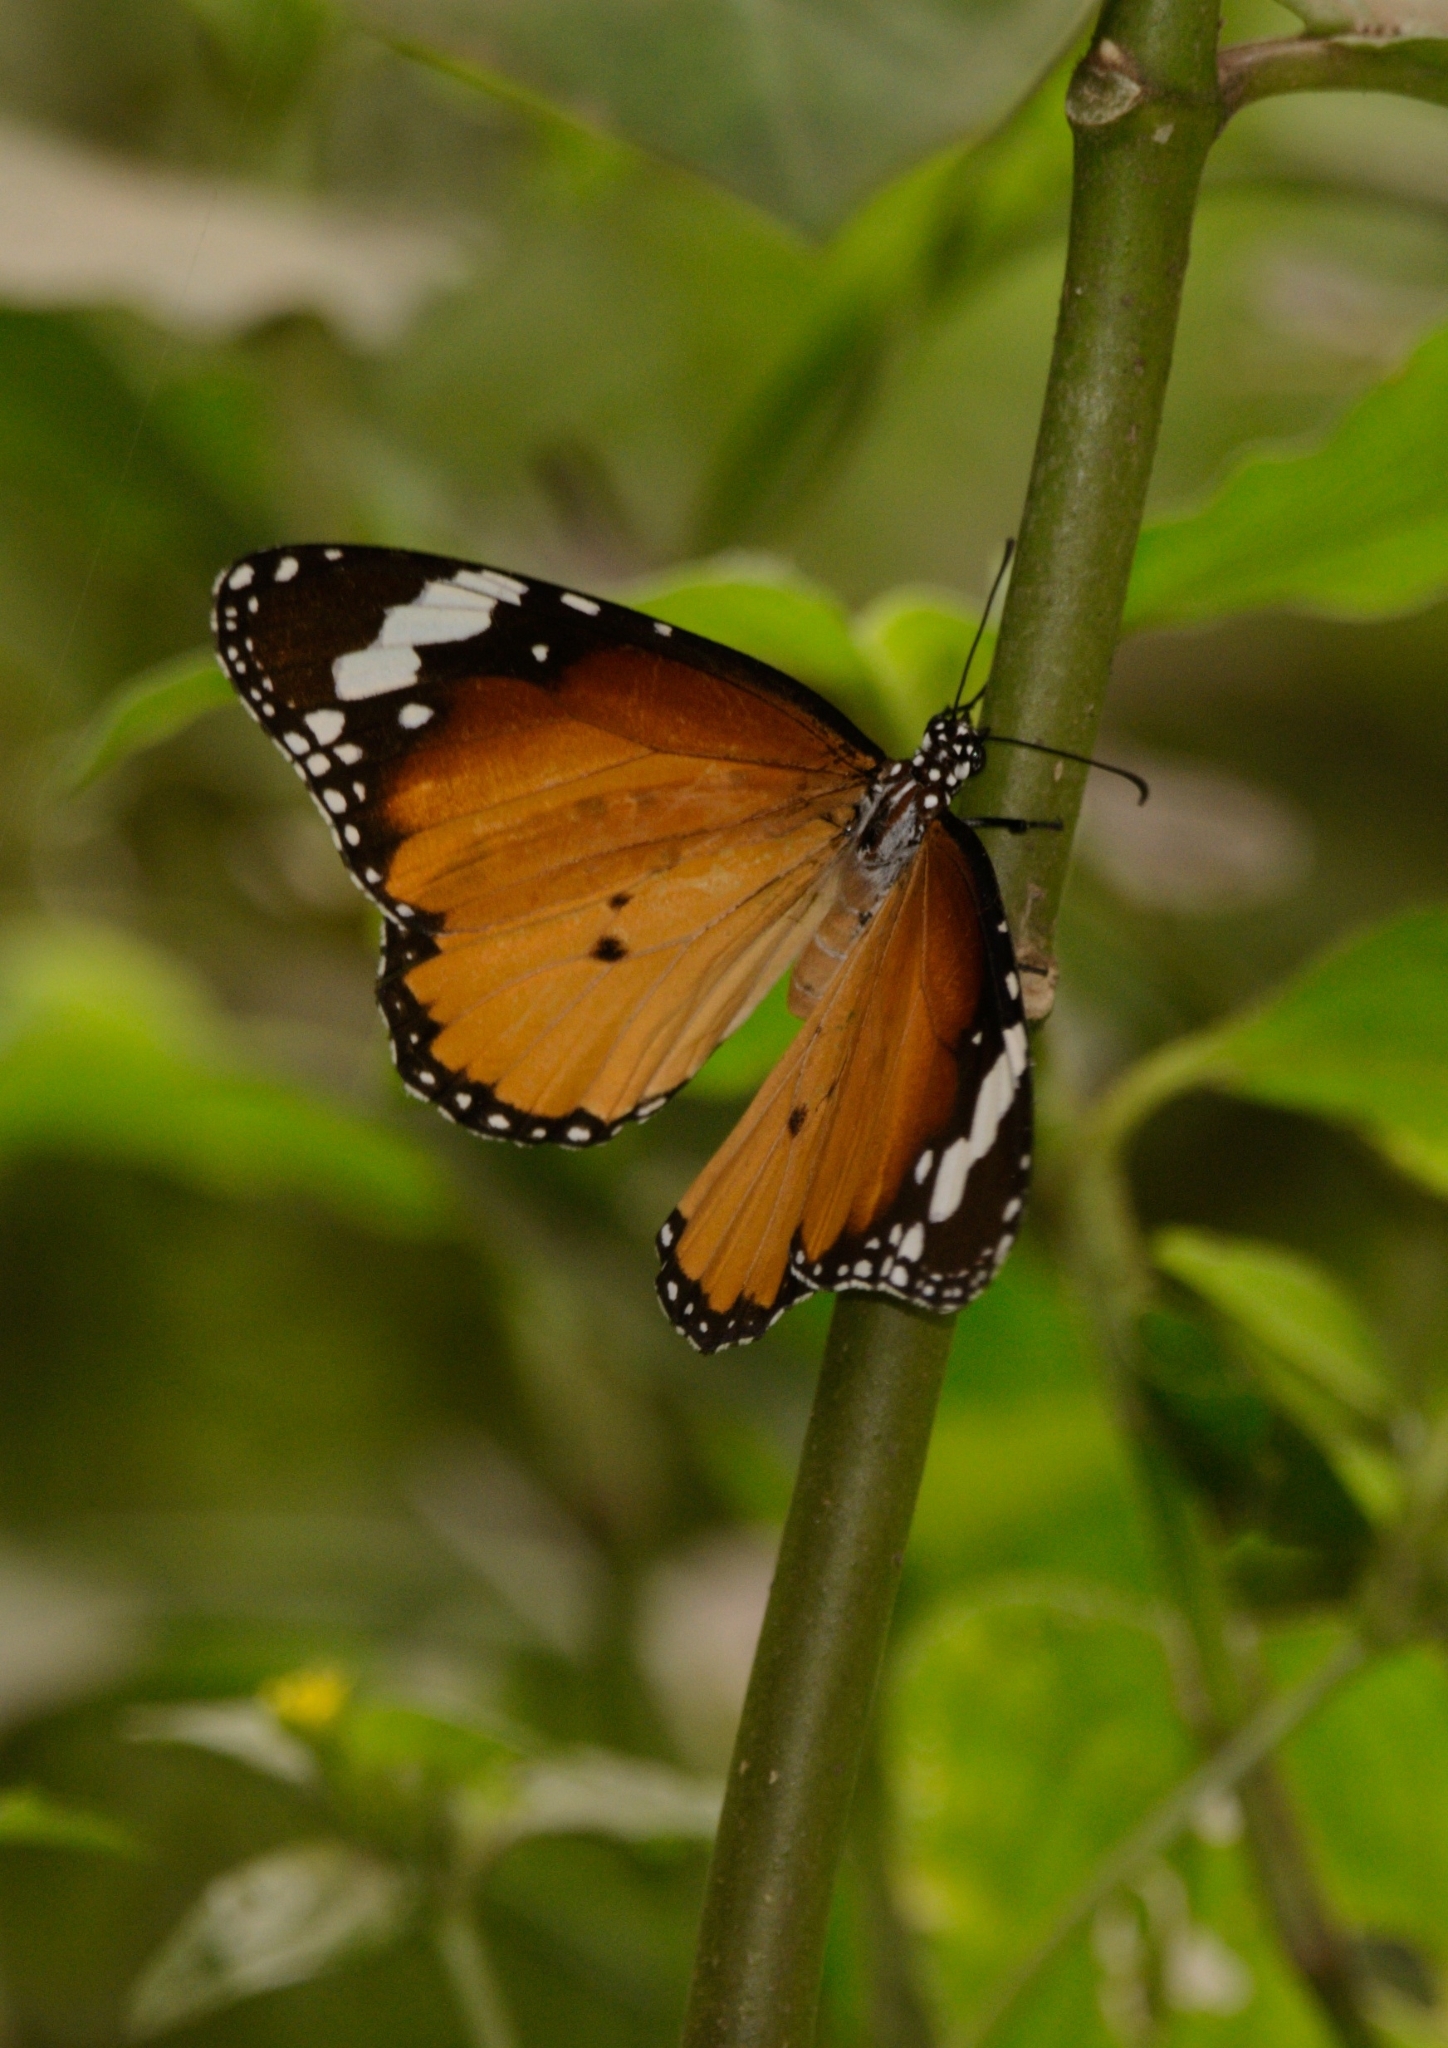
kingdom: Animalia
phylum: Arthropoda
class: Insecta
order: Lepidoptera
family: Nymphalidae
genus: Danaus
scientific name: Danaus chrysippus
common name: Plain tiger
